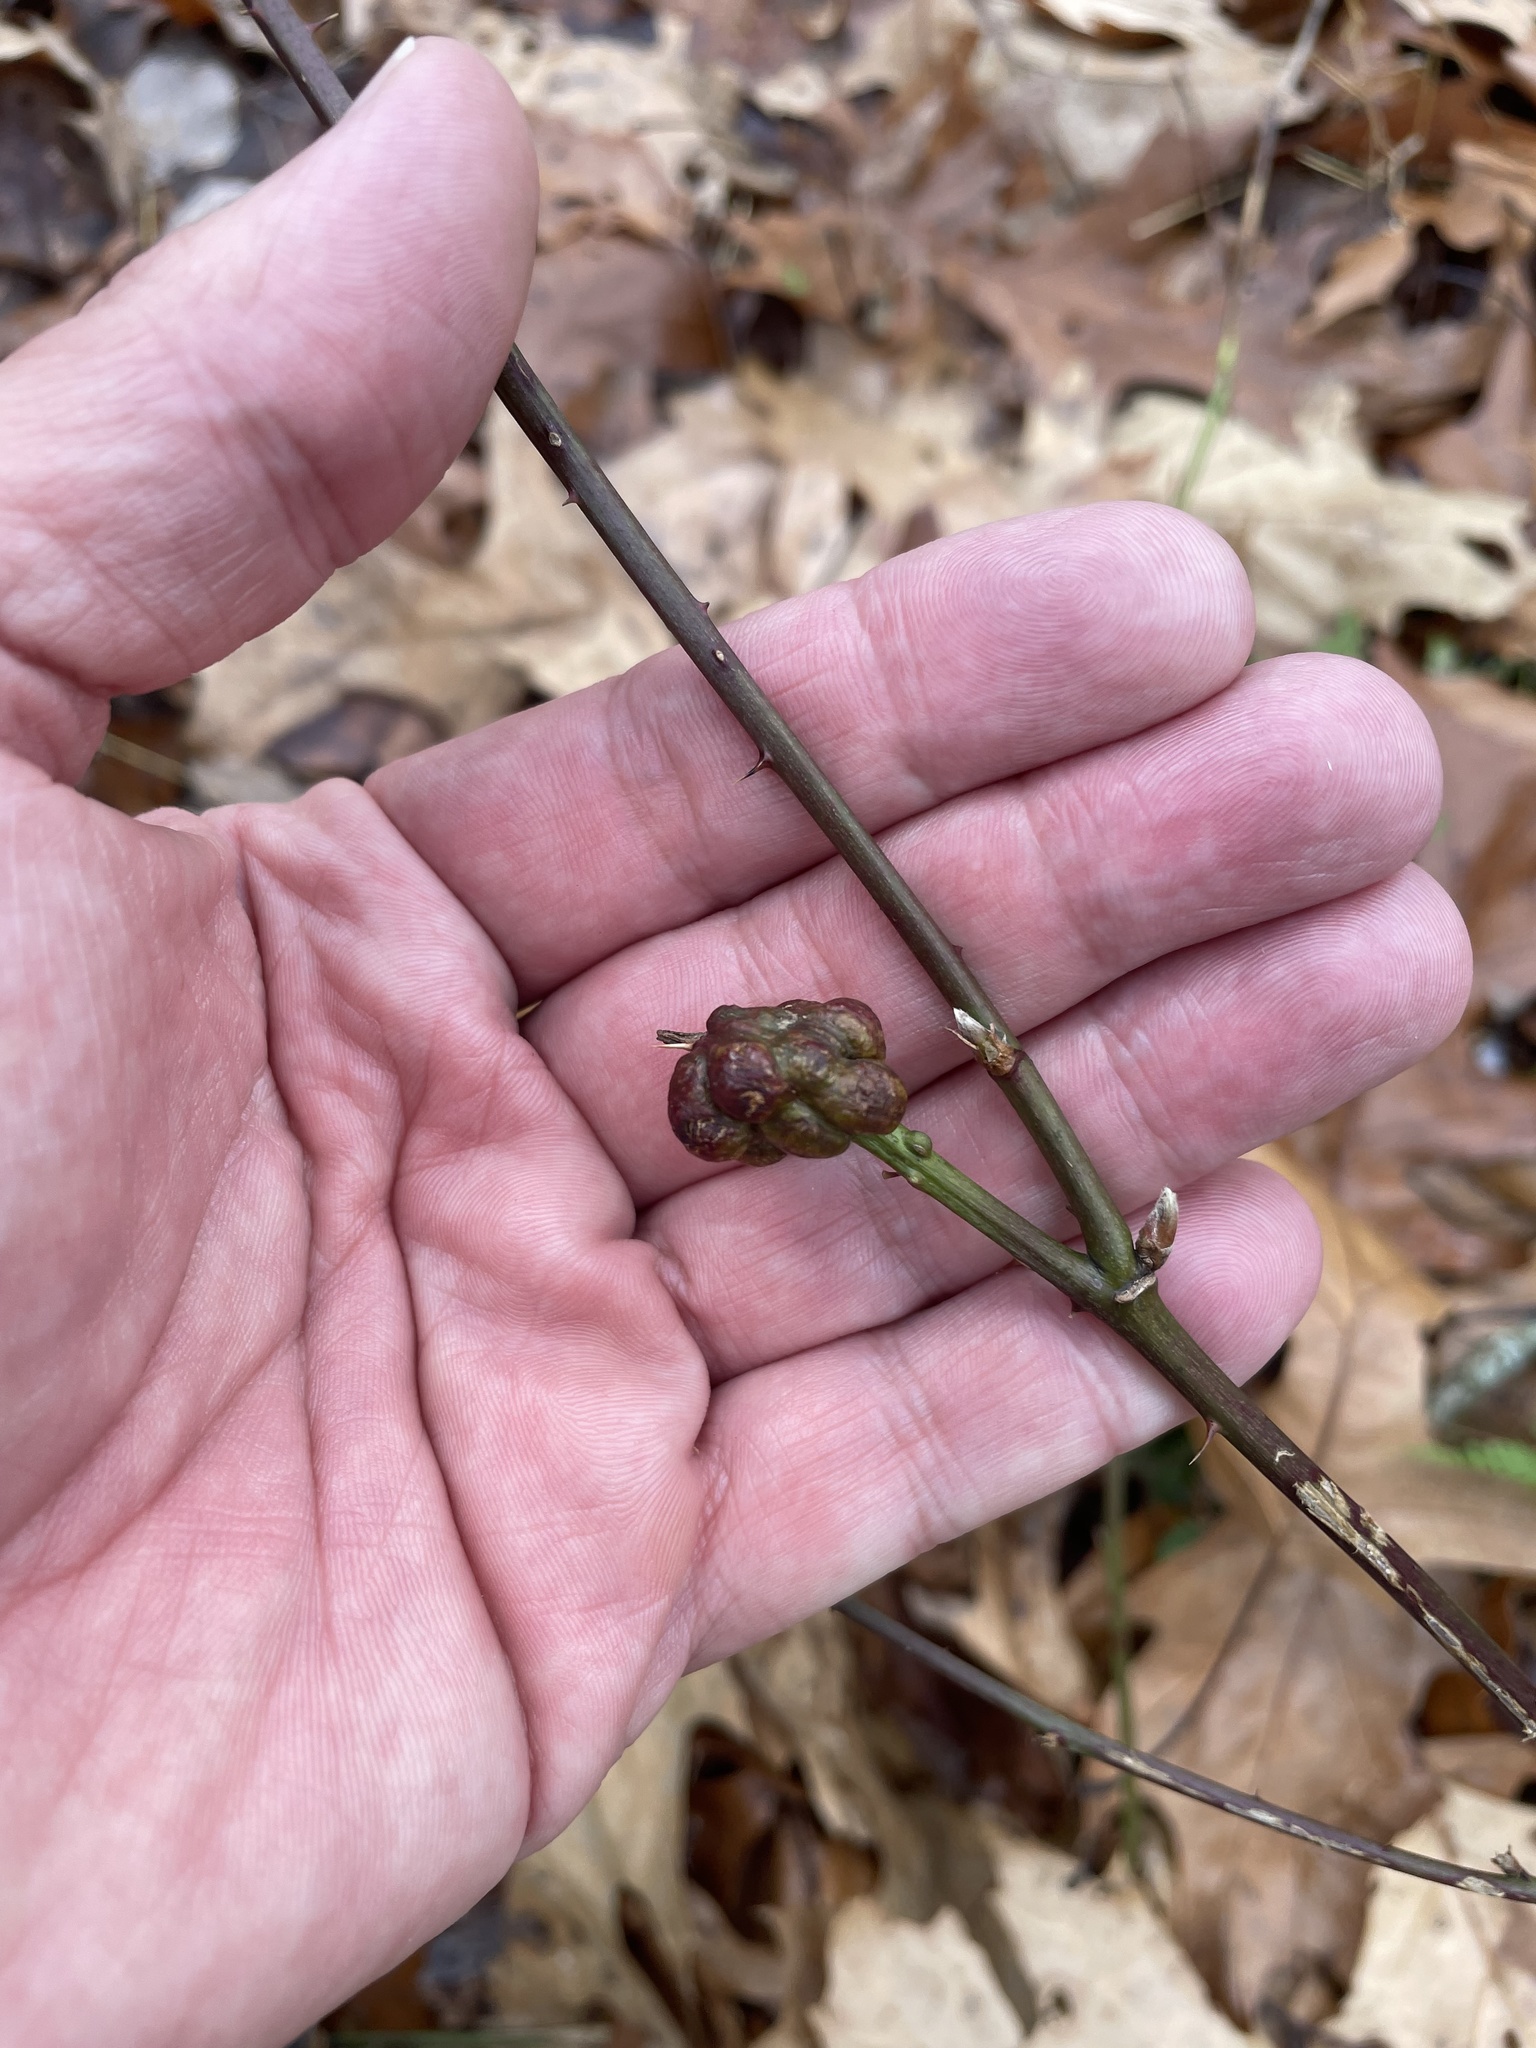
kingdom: Animalia
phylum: Arthropoda
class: Insecta
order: Hymenoptera
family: Cynipidae
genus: Diastrophus
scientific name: Diastrophus
